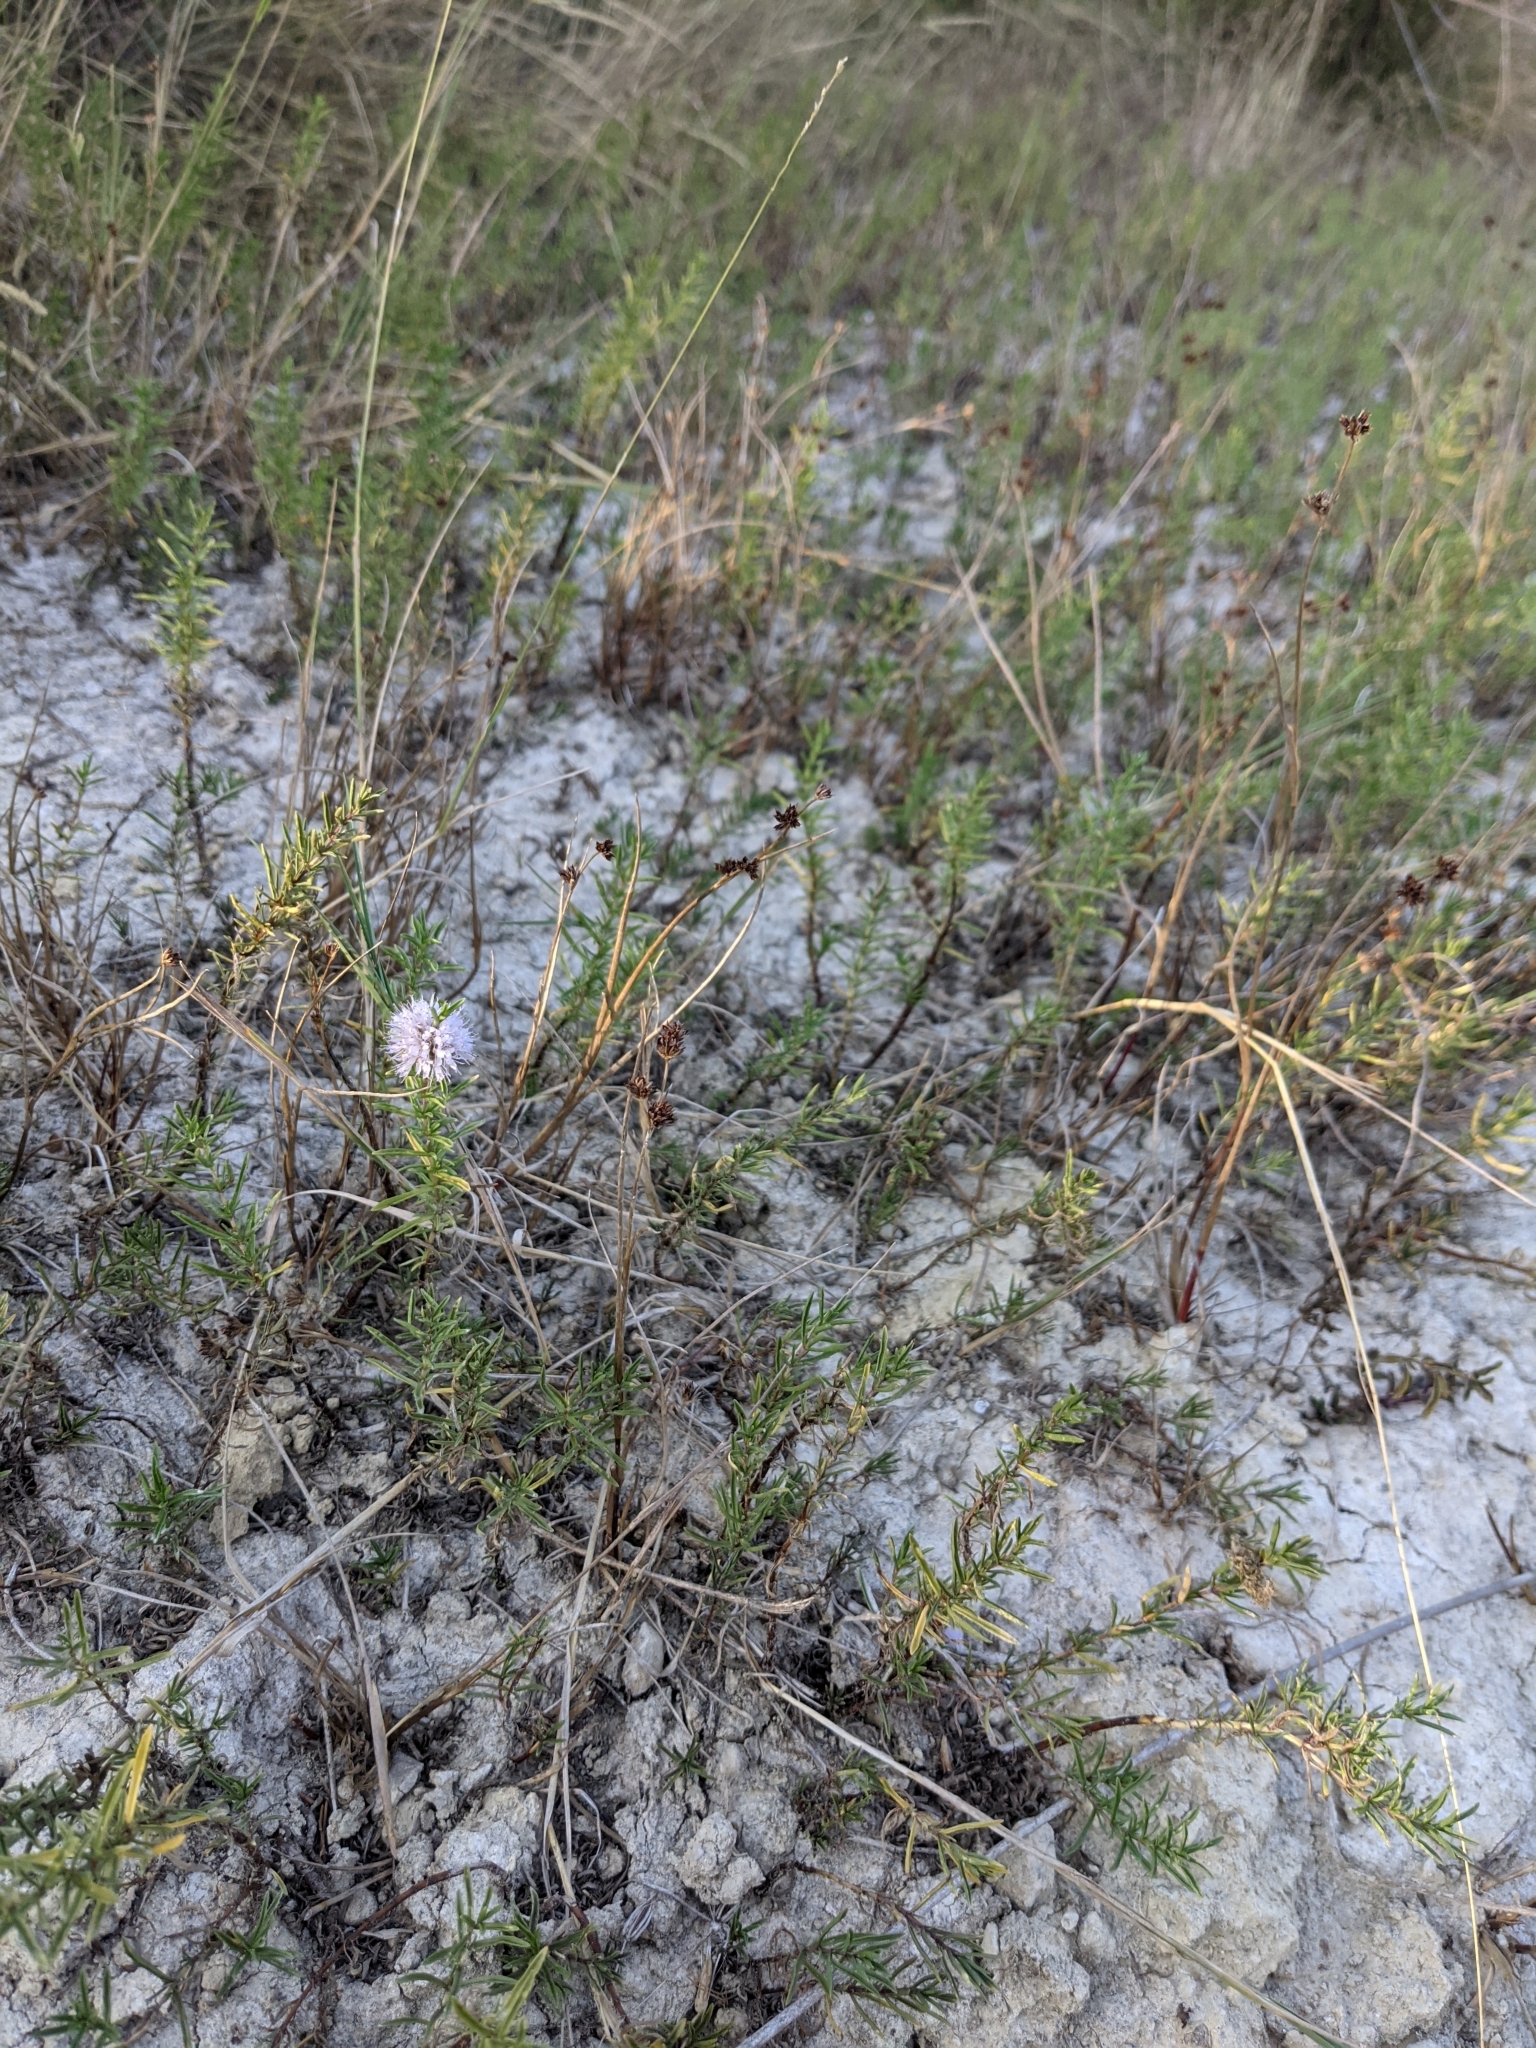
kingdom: Plantae
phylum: Tracheophyta
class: Magnoliopsida
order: Lamiales
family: Lamiaceae
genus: Mentha
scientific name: Mentha cervina
